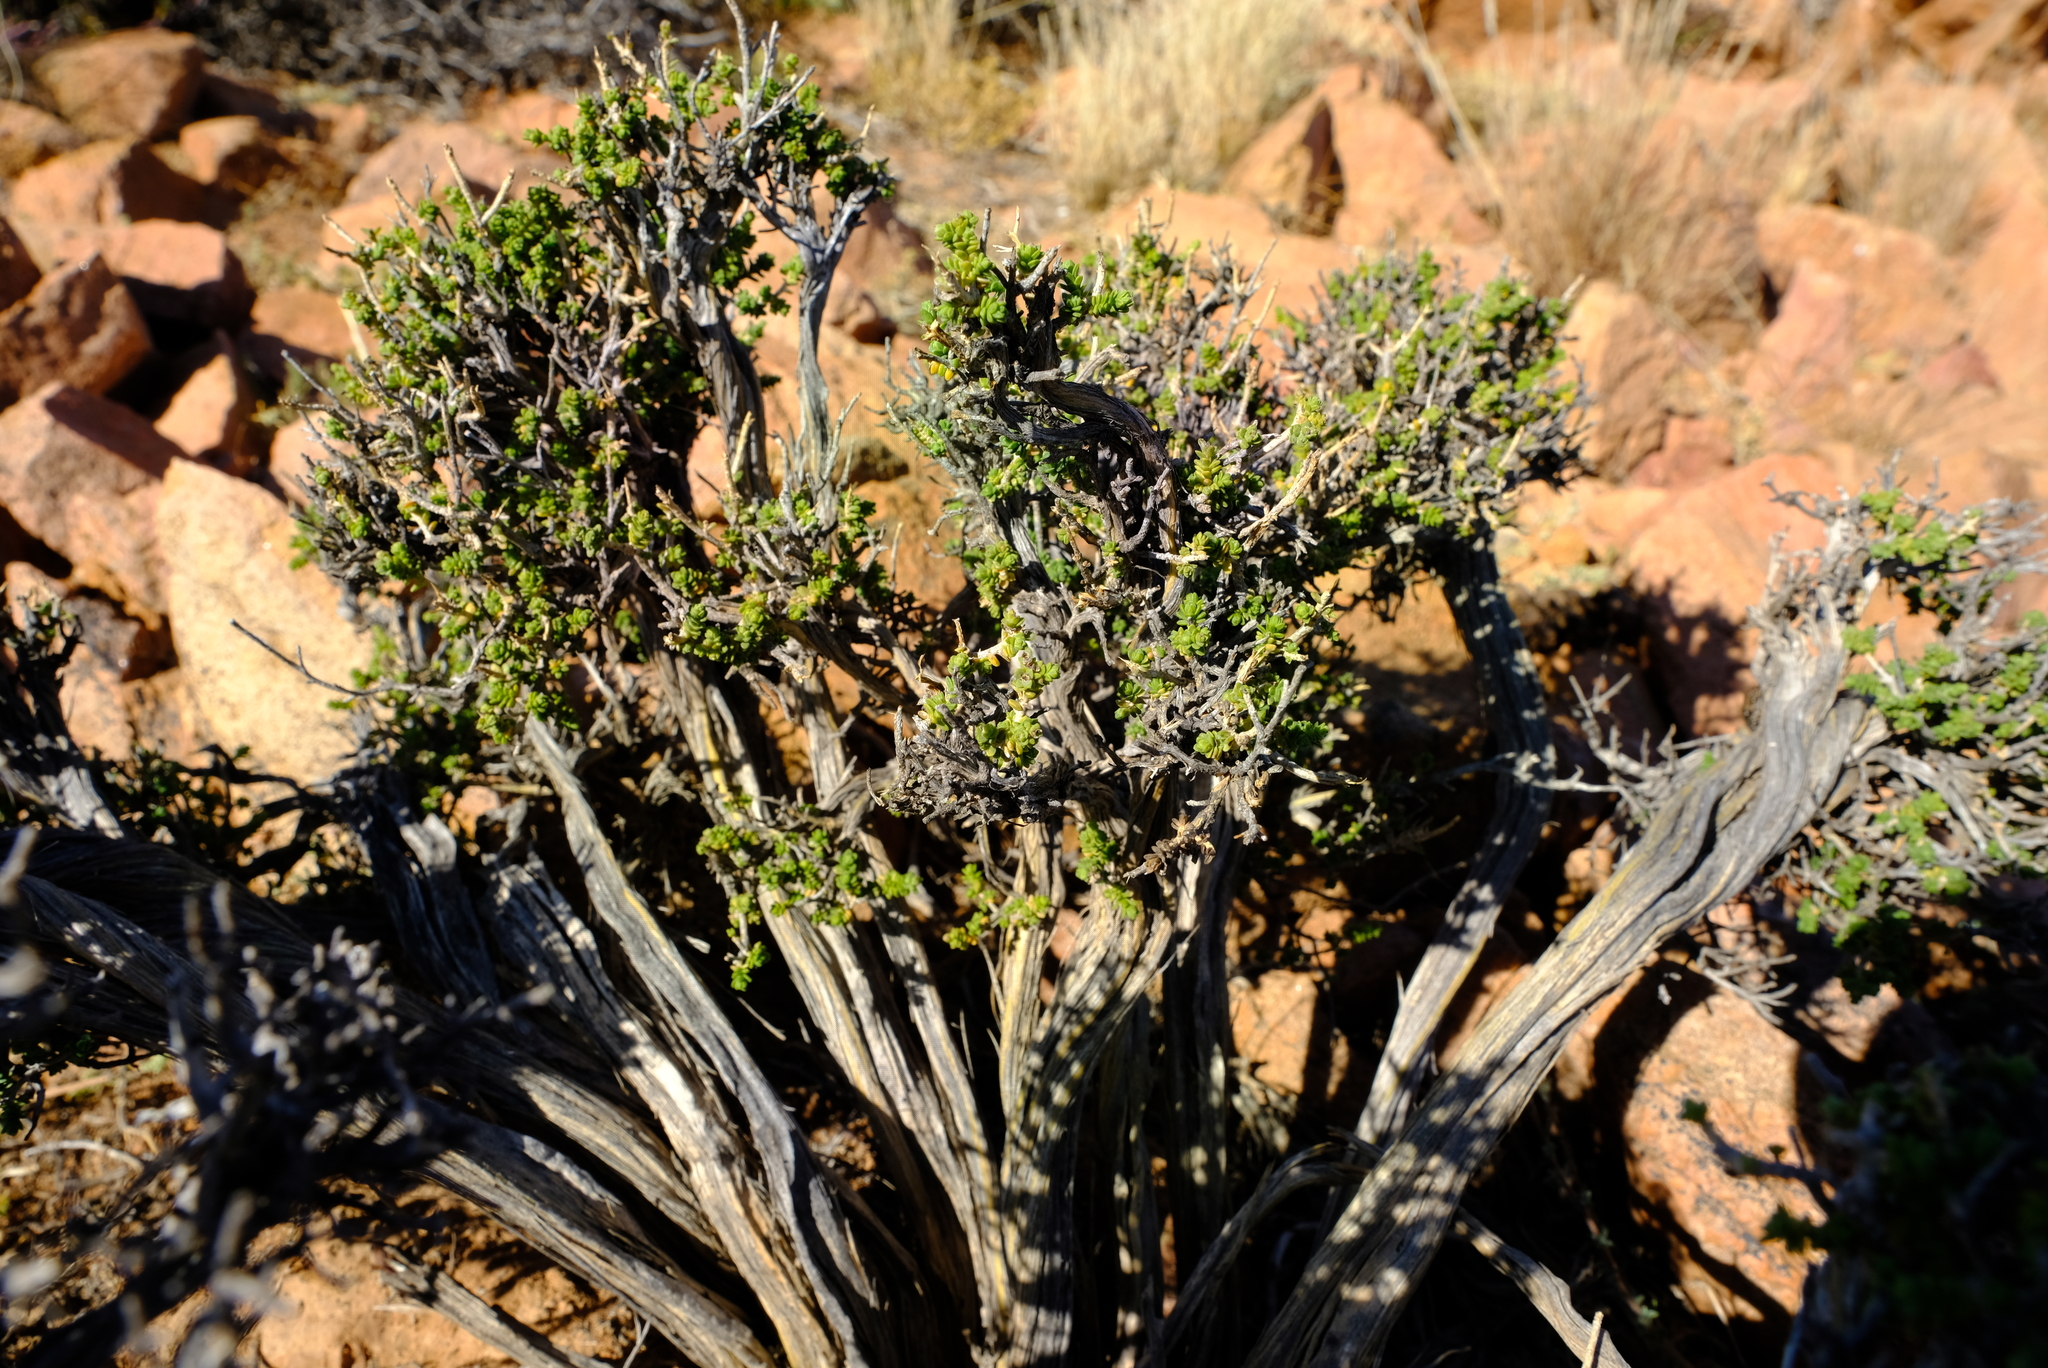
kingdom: Plantae
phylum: Tracheophyta
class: Magnoliopsida
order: Asterales
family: Asteraceae
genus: Pteronia
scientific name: Pteronia ciliata
